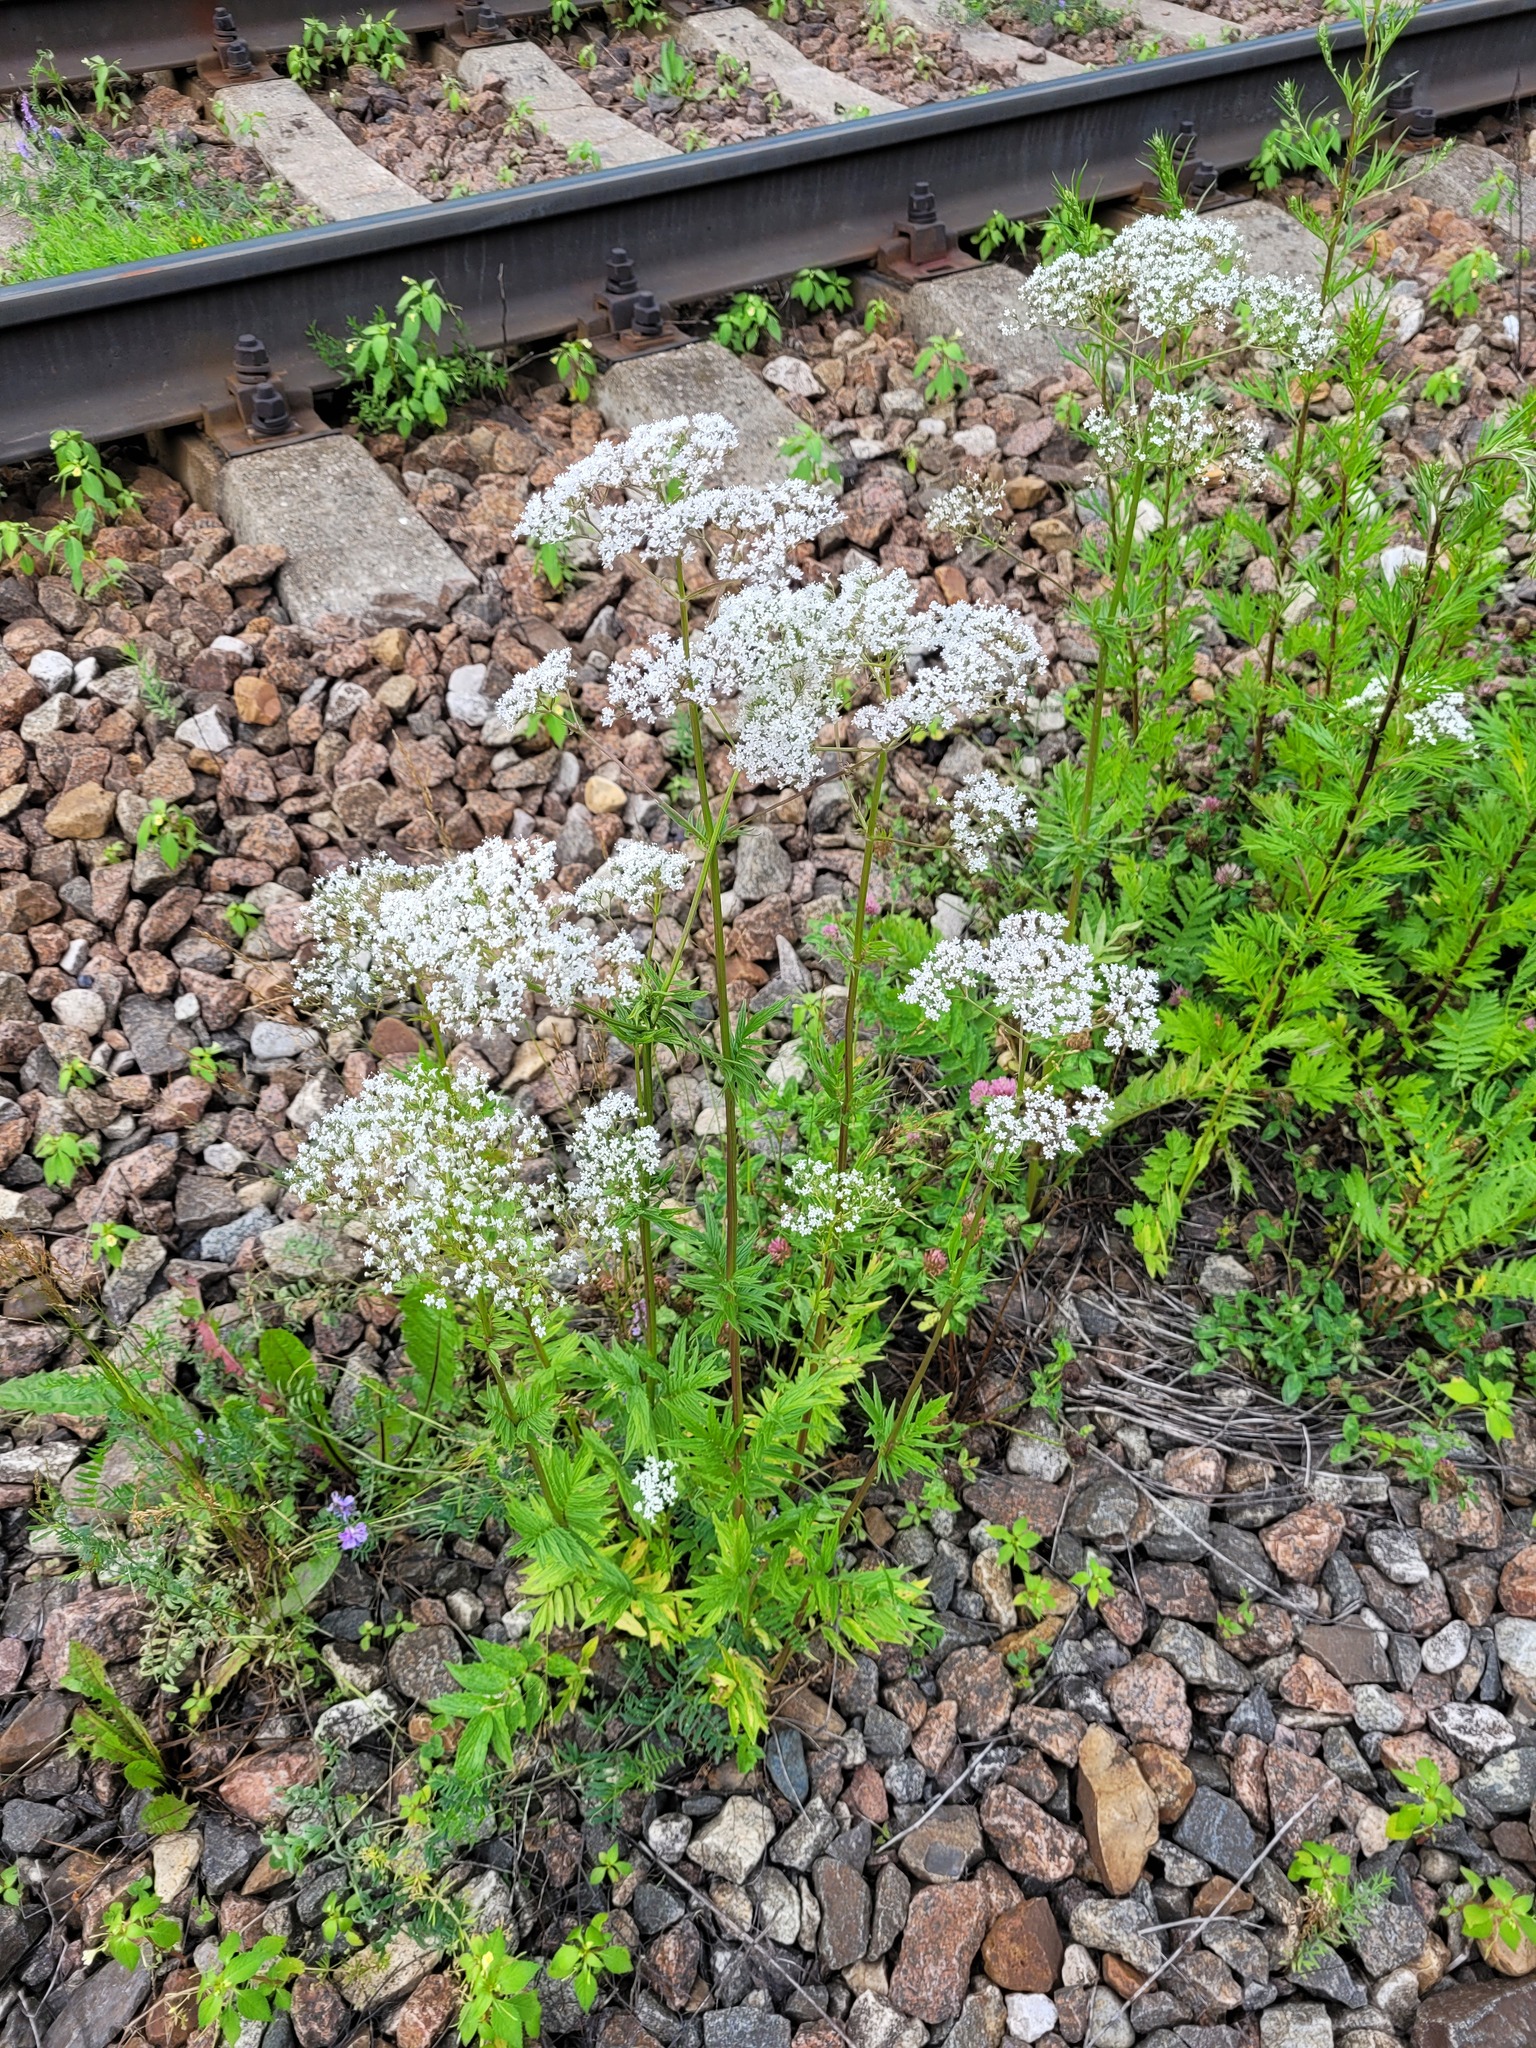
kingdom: Plantae
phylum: Tracheophyta
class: Magnoliopsida
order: Dipsacales
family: Caprifoliaceae
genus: Valeriana
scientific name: Valeriana officinalis
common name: Common valerian
